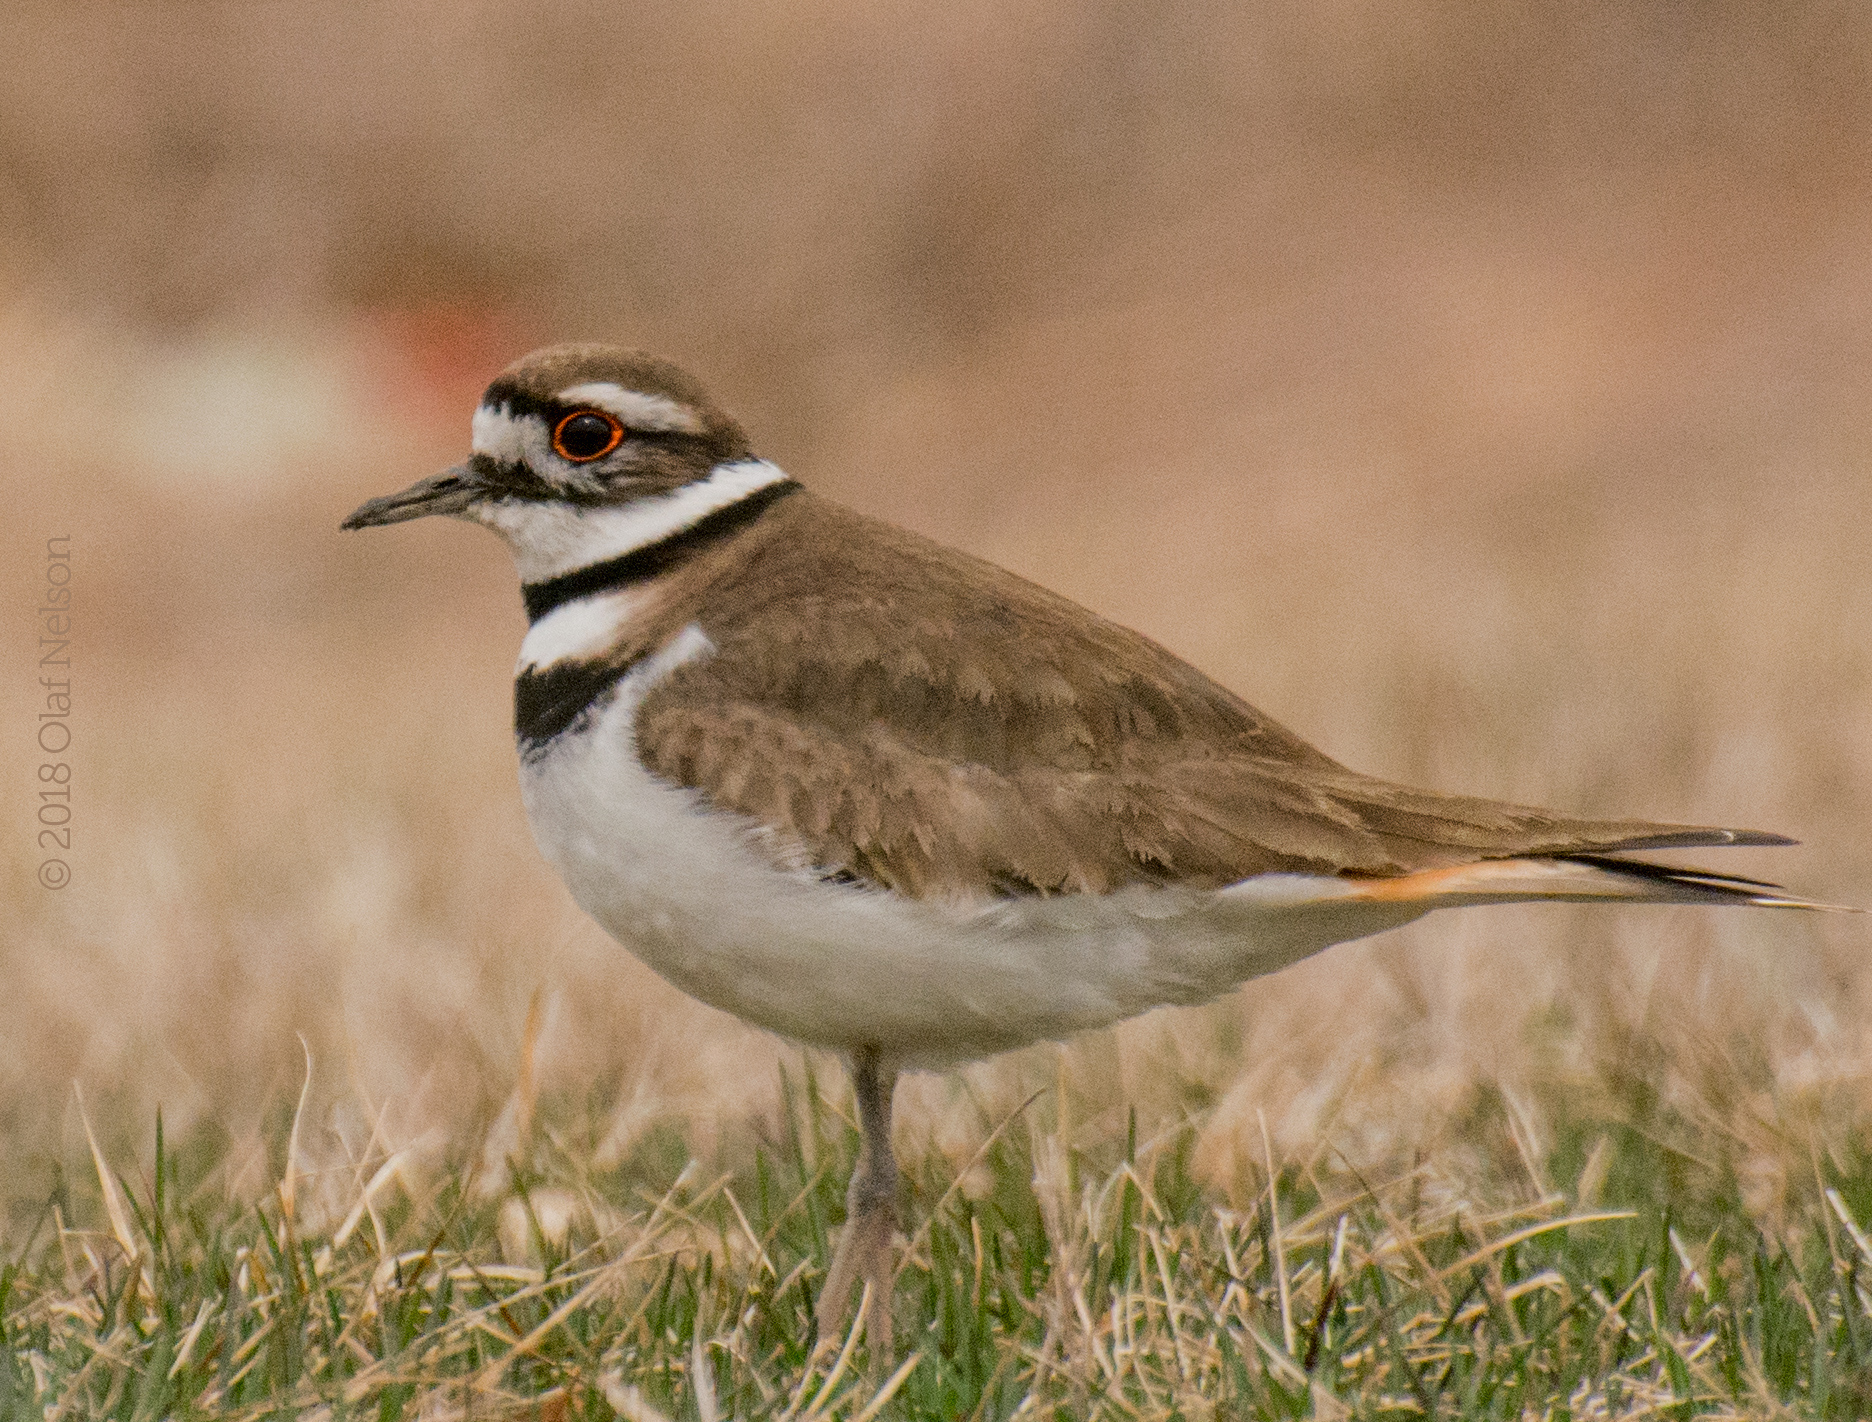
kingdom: Animalia
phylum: Chordata
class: Aves
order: Charadriiformes
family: Charadriidae
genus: Charadrius
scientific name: Charadrius vociferus
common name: Killdeer
